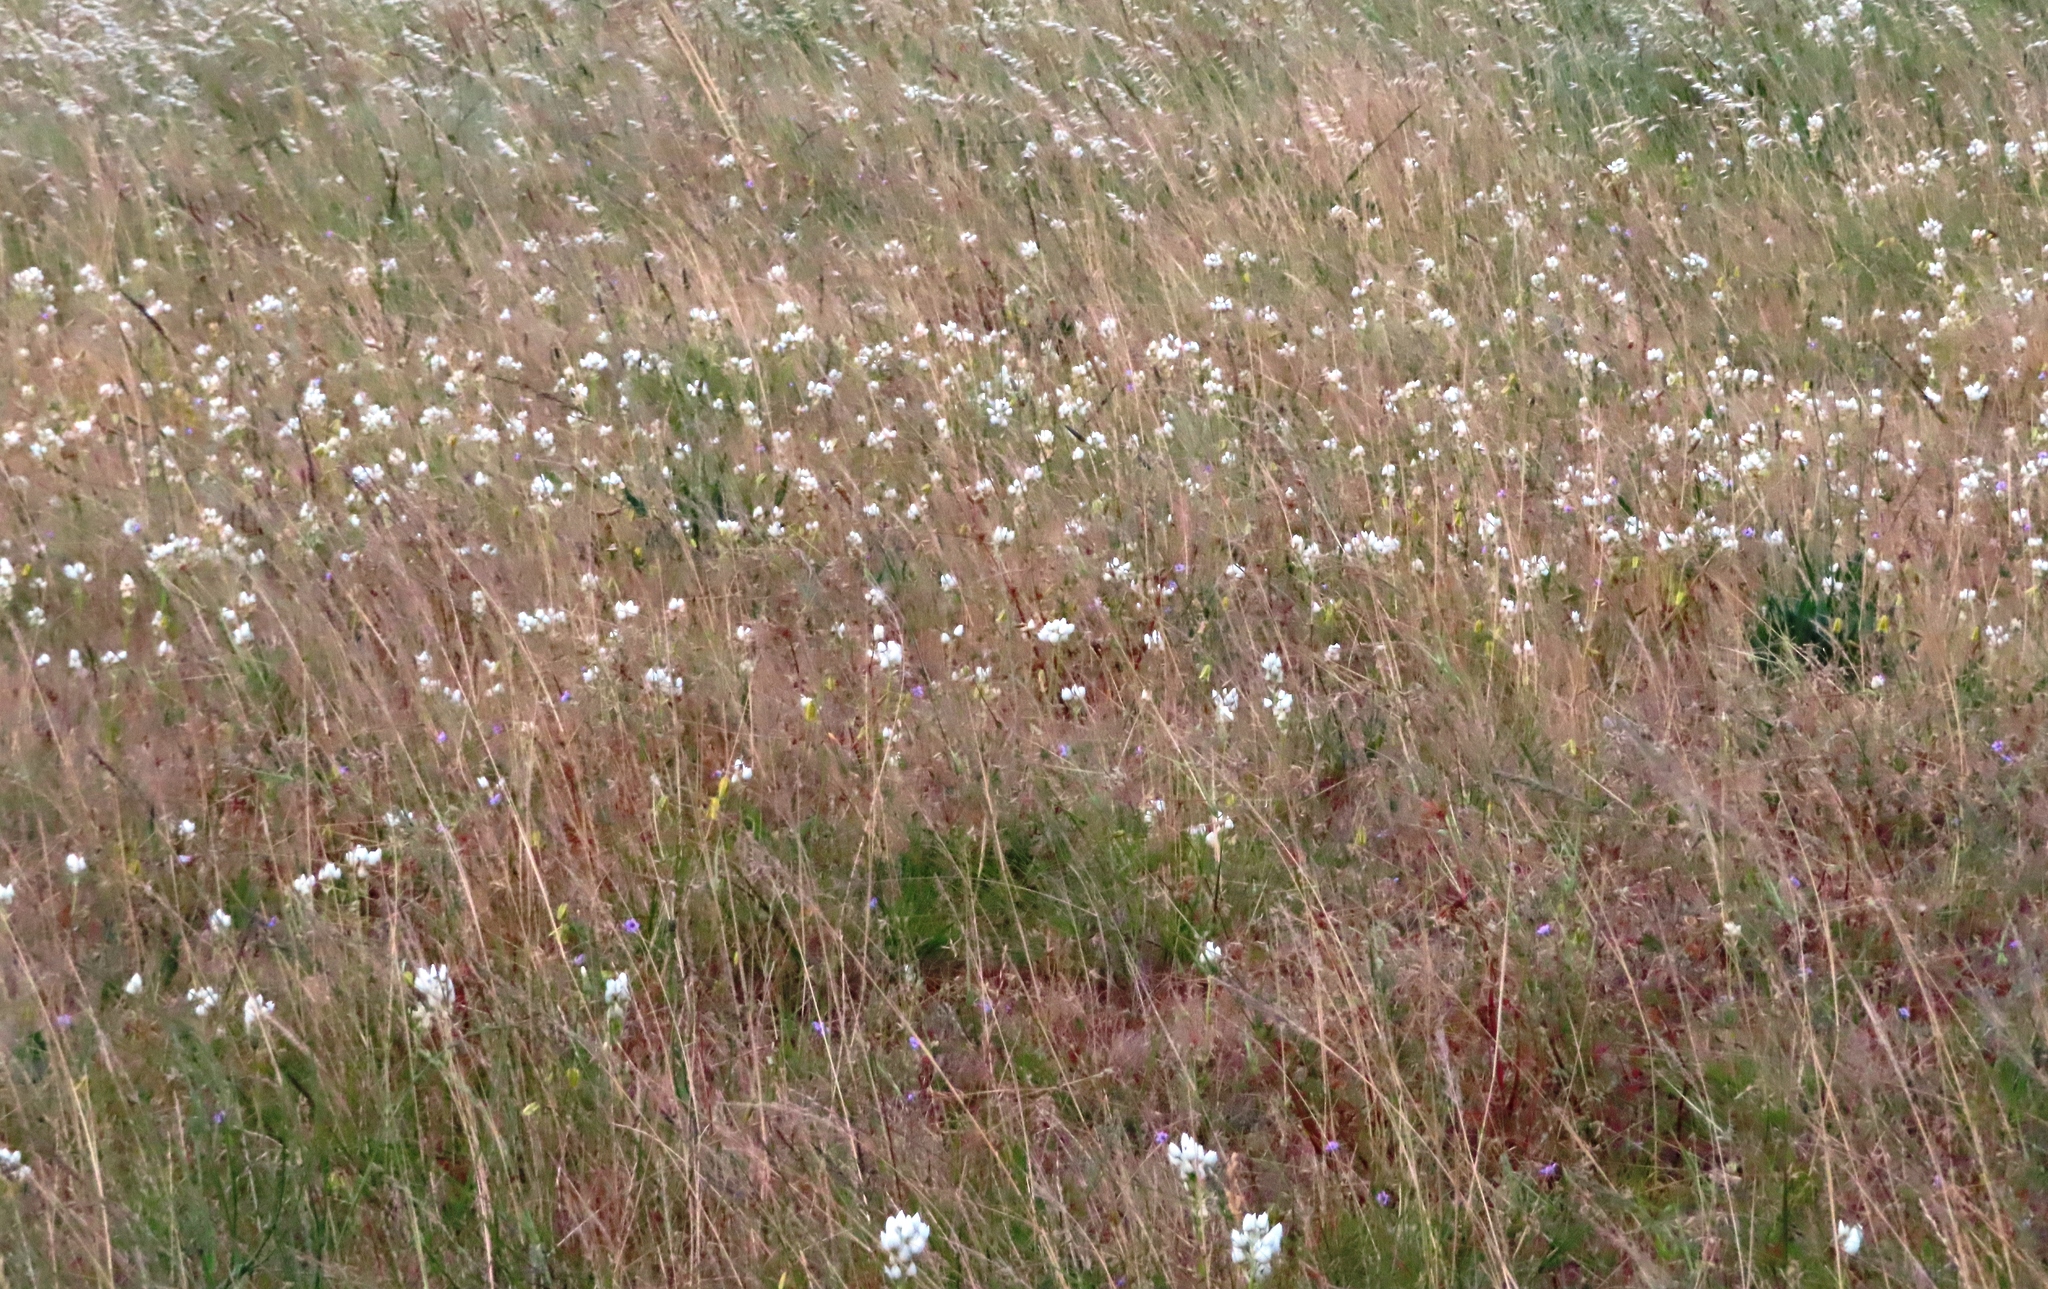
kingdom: Plantae
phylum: Tracheophyta
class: Liliopsida
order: Asparagales
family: Asparagaceae
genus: Ornithogalum
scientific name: Ornithogalum thyrsoides
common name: Chincherinchee
